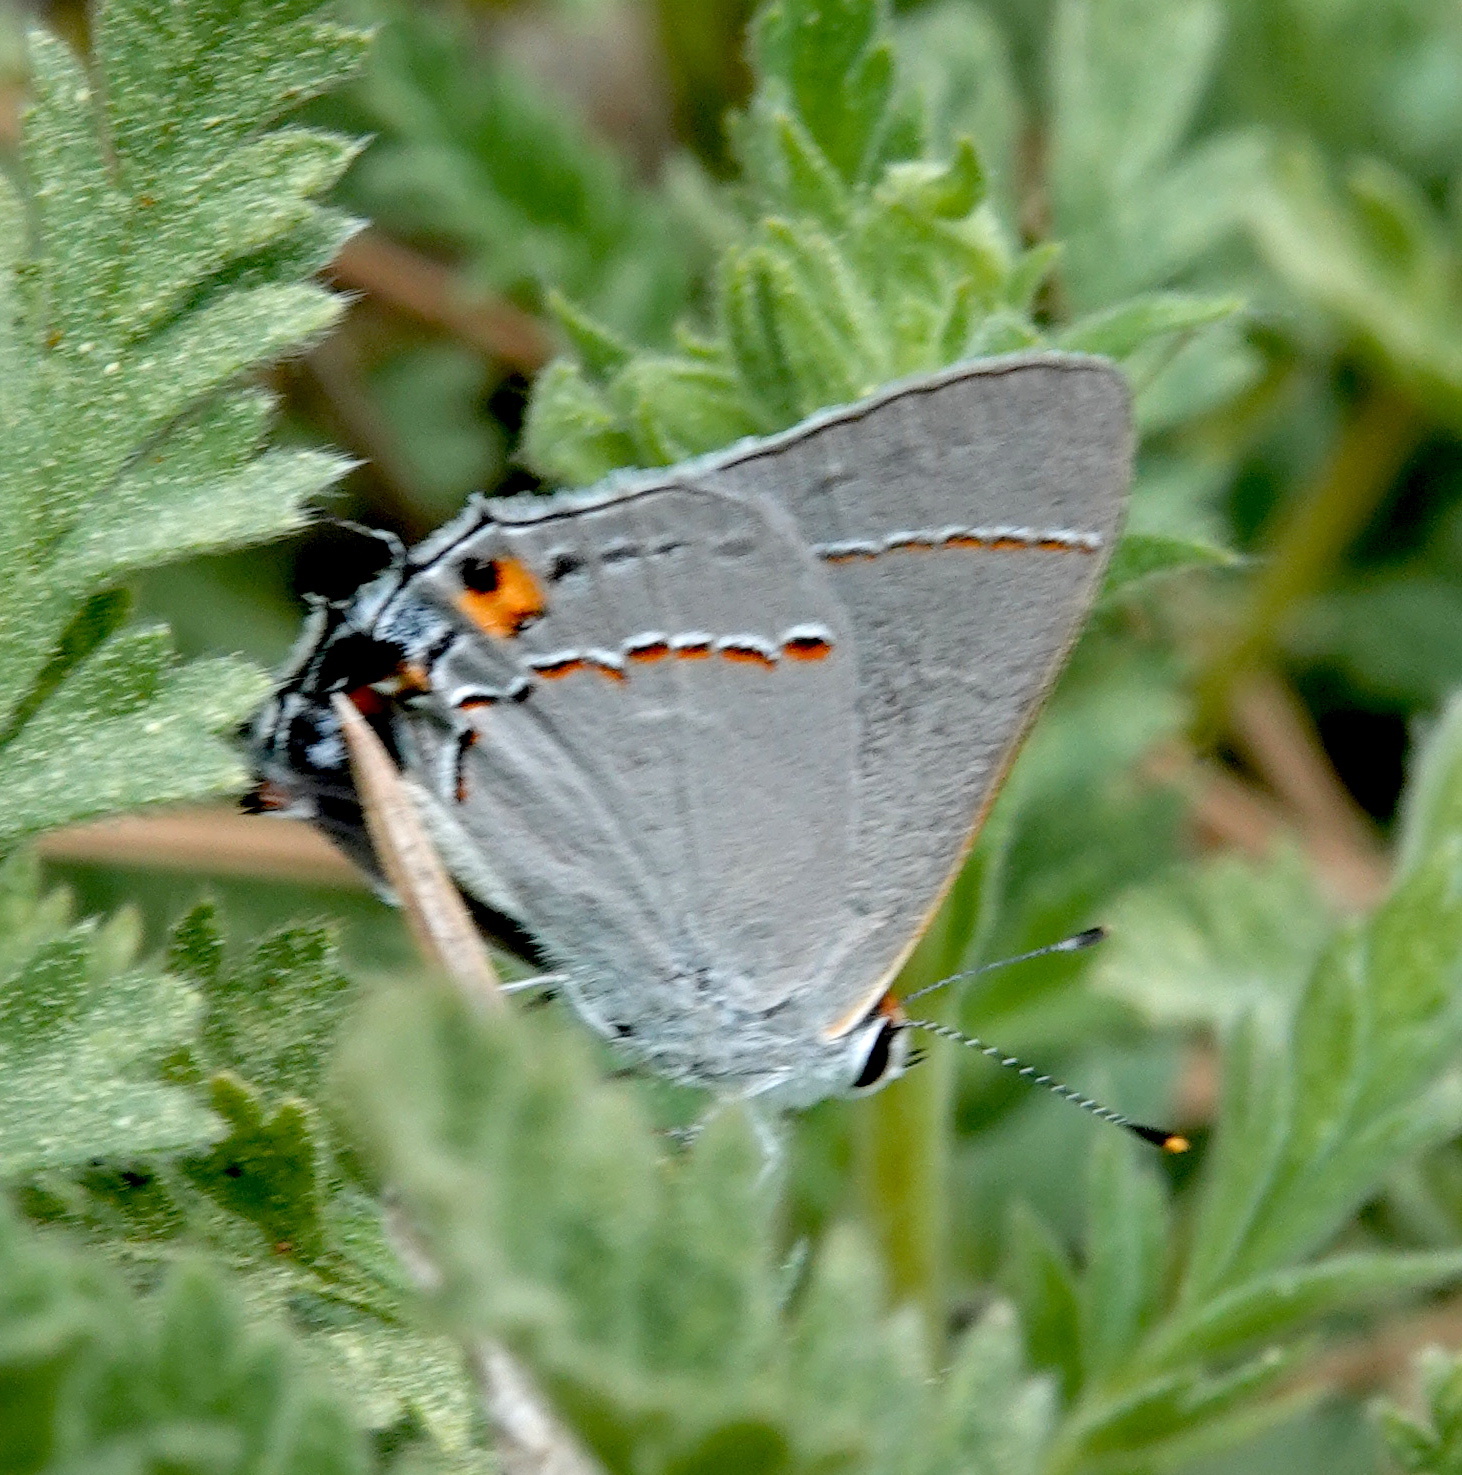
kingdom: Animalia
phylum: Arthropoda
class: Insecta
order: Lepidoptera
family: Lycaenidae
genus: Strymon
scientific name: Strymon melinus
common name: Gray hairstreak
